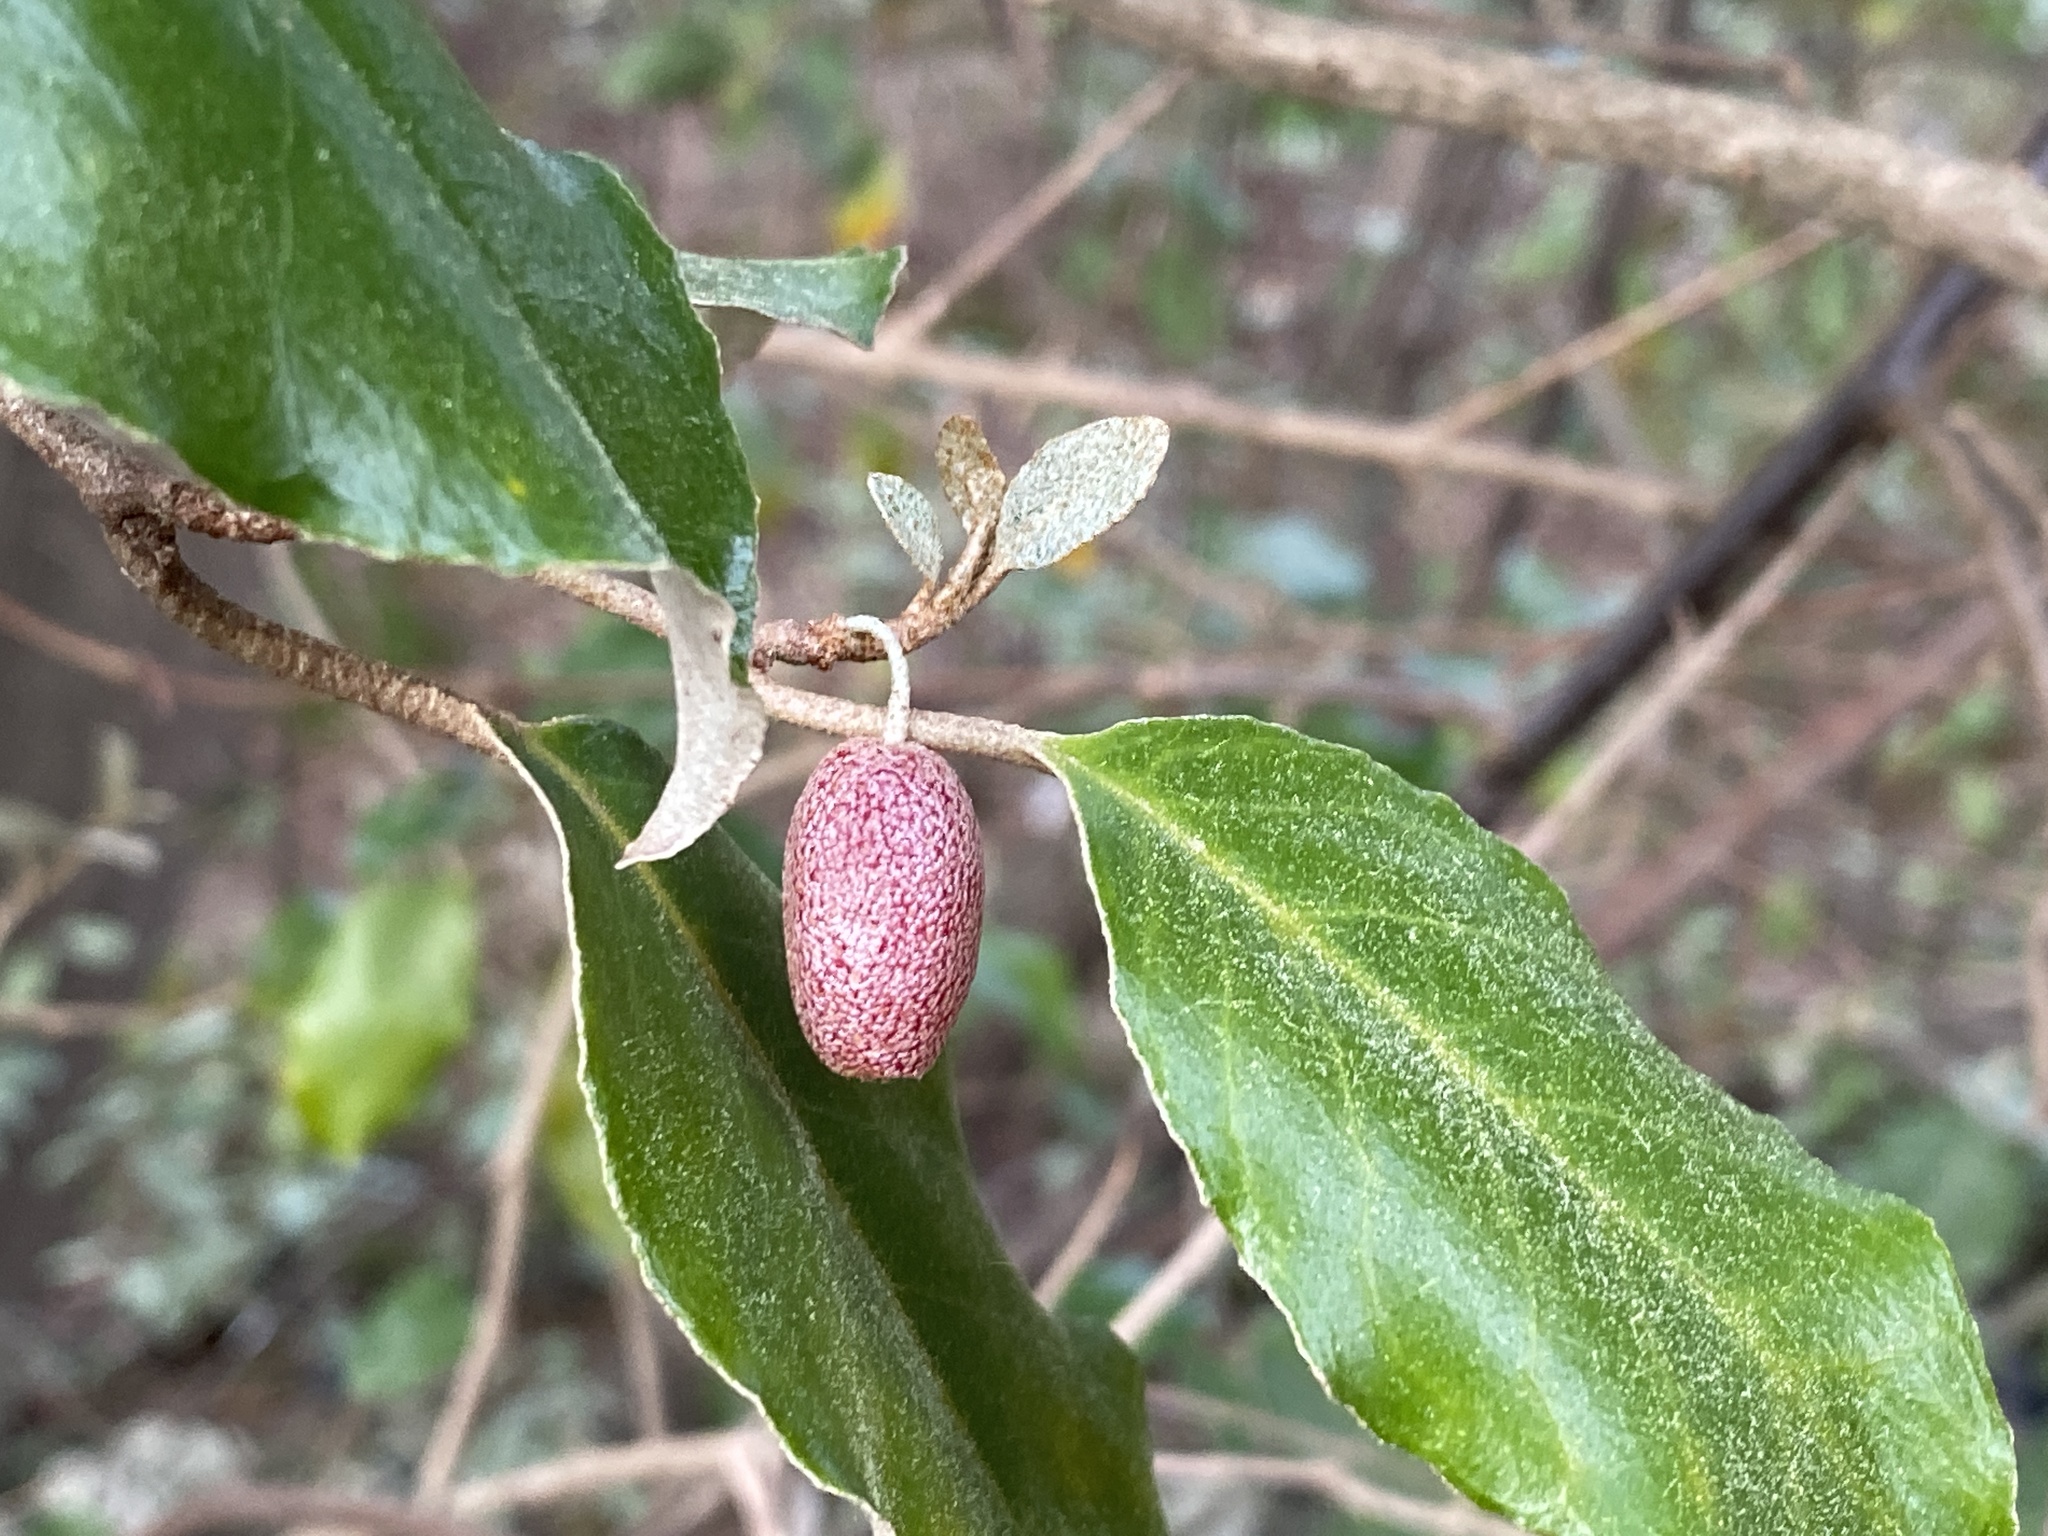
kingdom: Plantae
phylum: Tracheophyta
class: Magnoliopsida
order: Rosales
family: Elaeagnaceae
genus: Elaeagnus
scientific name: Elaeagnus pungens
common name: Spiny oleaster
